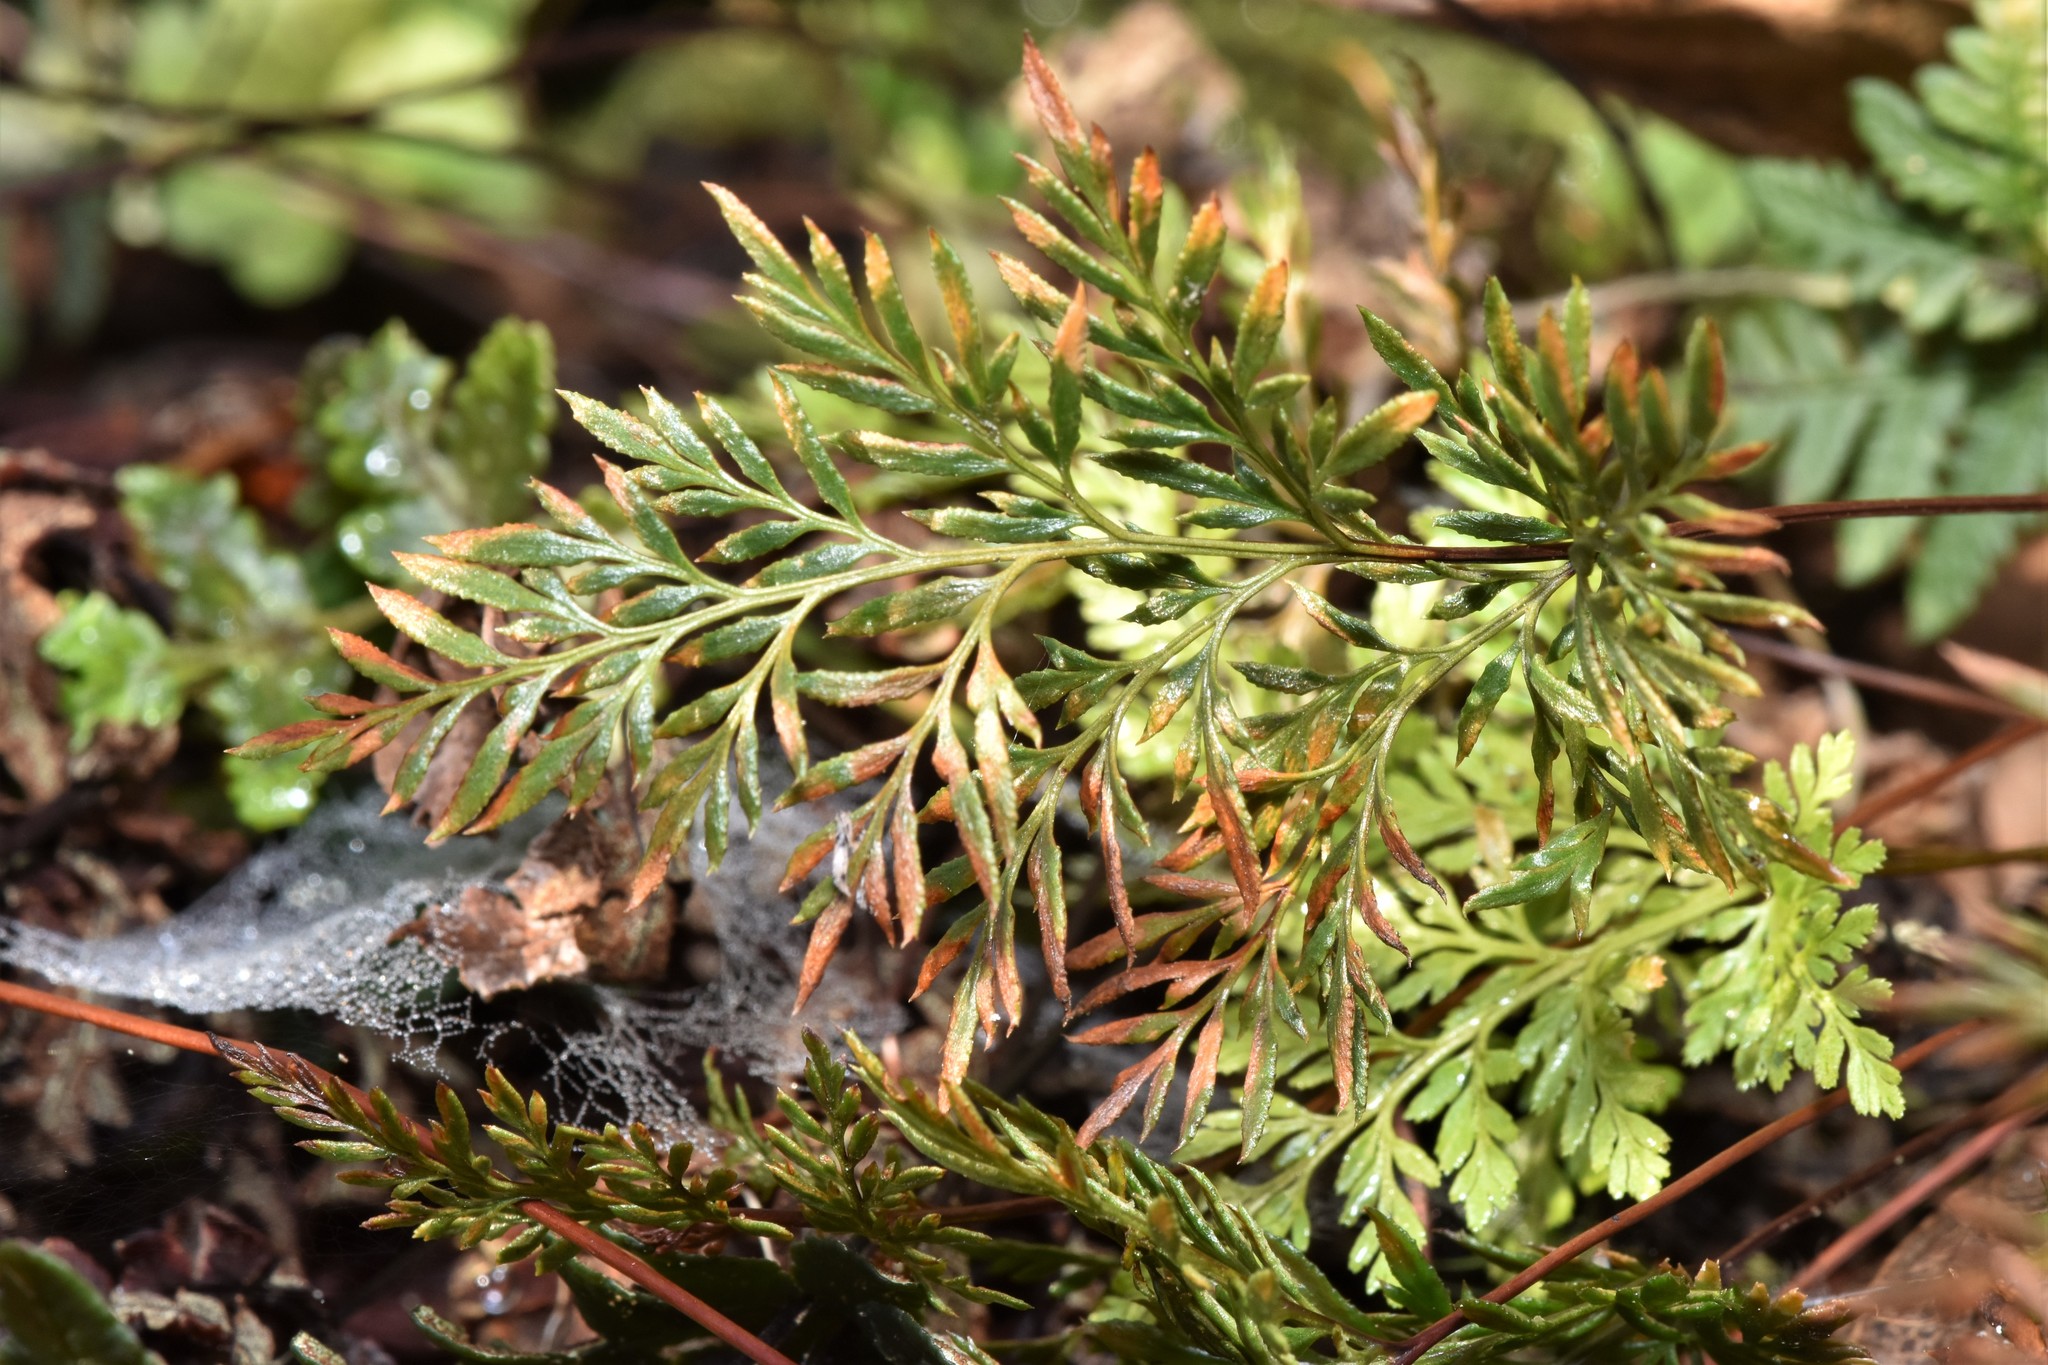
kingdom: Plantae
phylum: Tracheophyta
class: Polypodiopsida
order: Polypodiales
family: Pteridaceae
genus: Aspidotis
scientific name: Aspidotis densa
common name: Indian's dream
